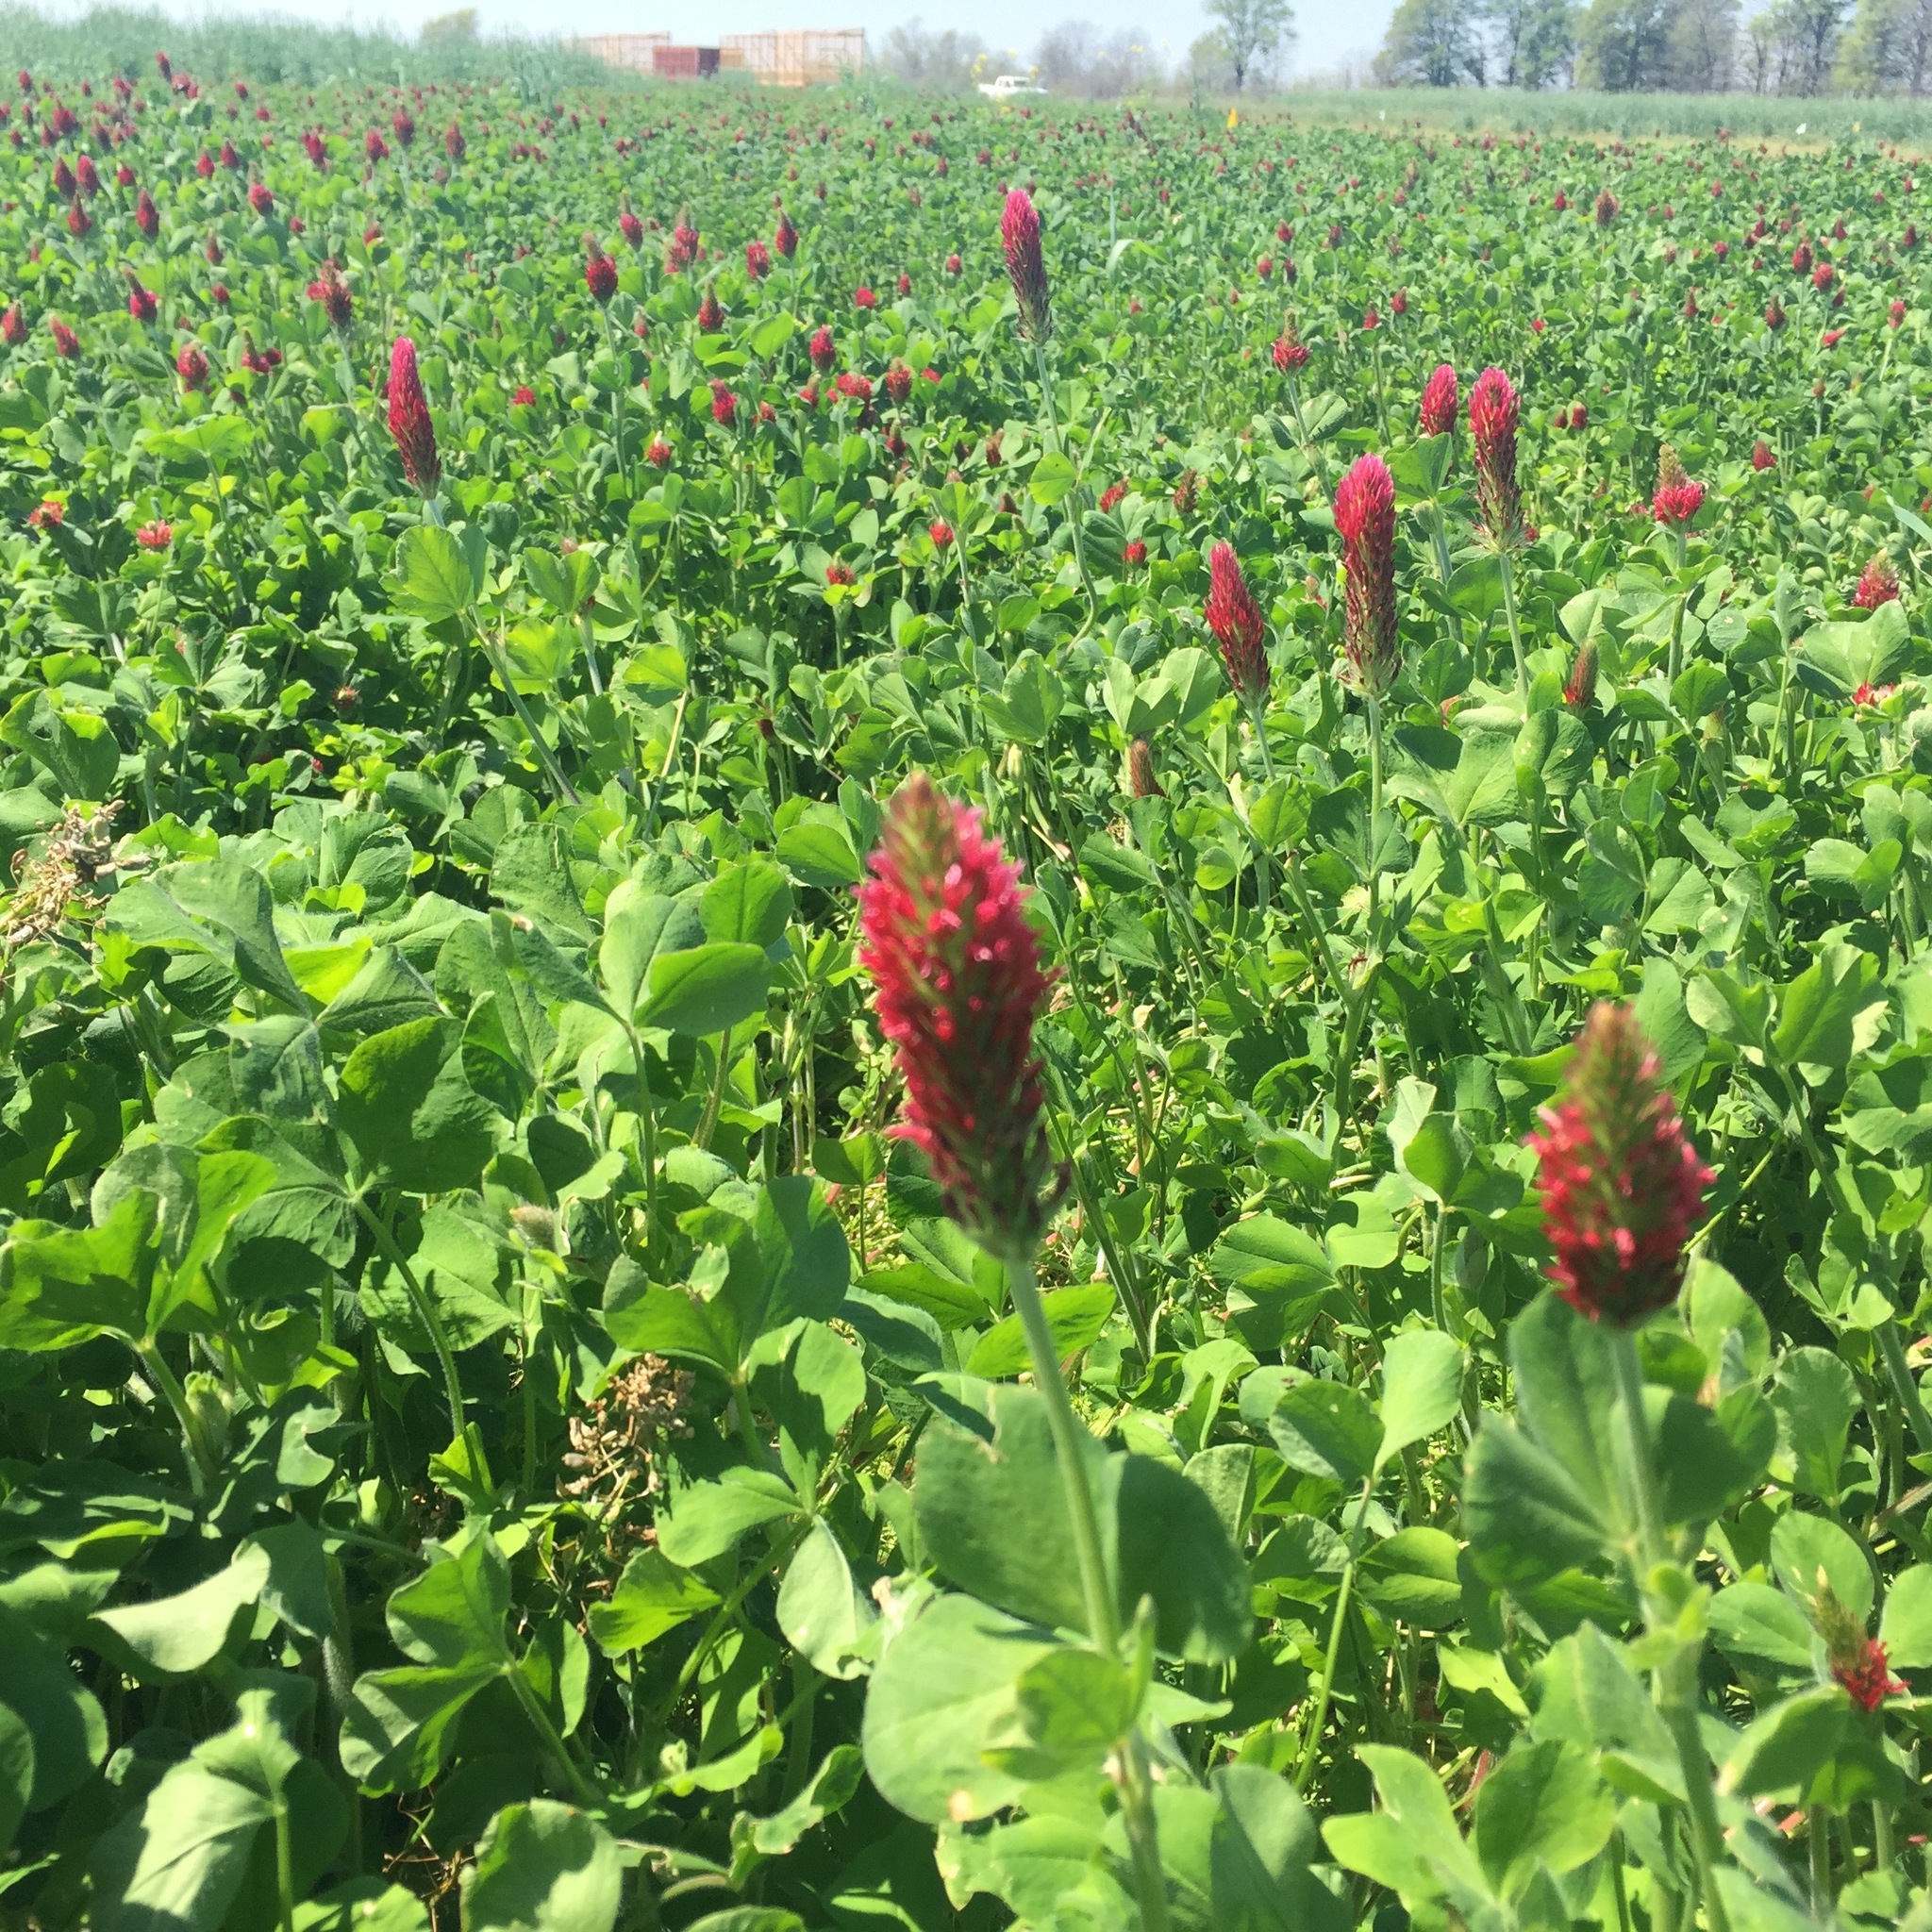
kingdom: Plantae
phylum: Tracheophyta
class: Magnoliopsida
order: Fabales
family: Fabaceae
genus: Trifolium
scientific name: Trifolium incarnatum
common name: Crimson clover
